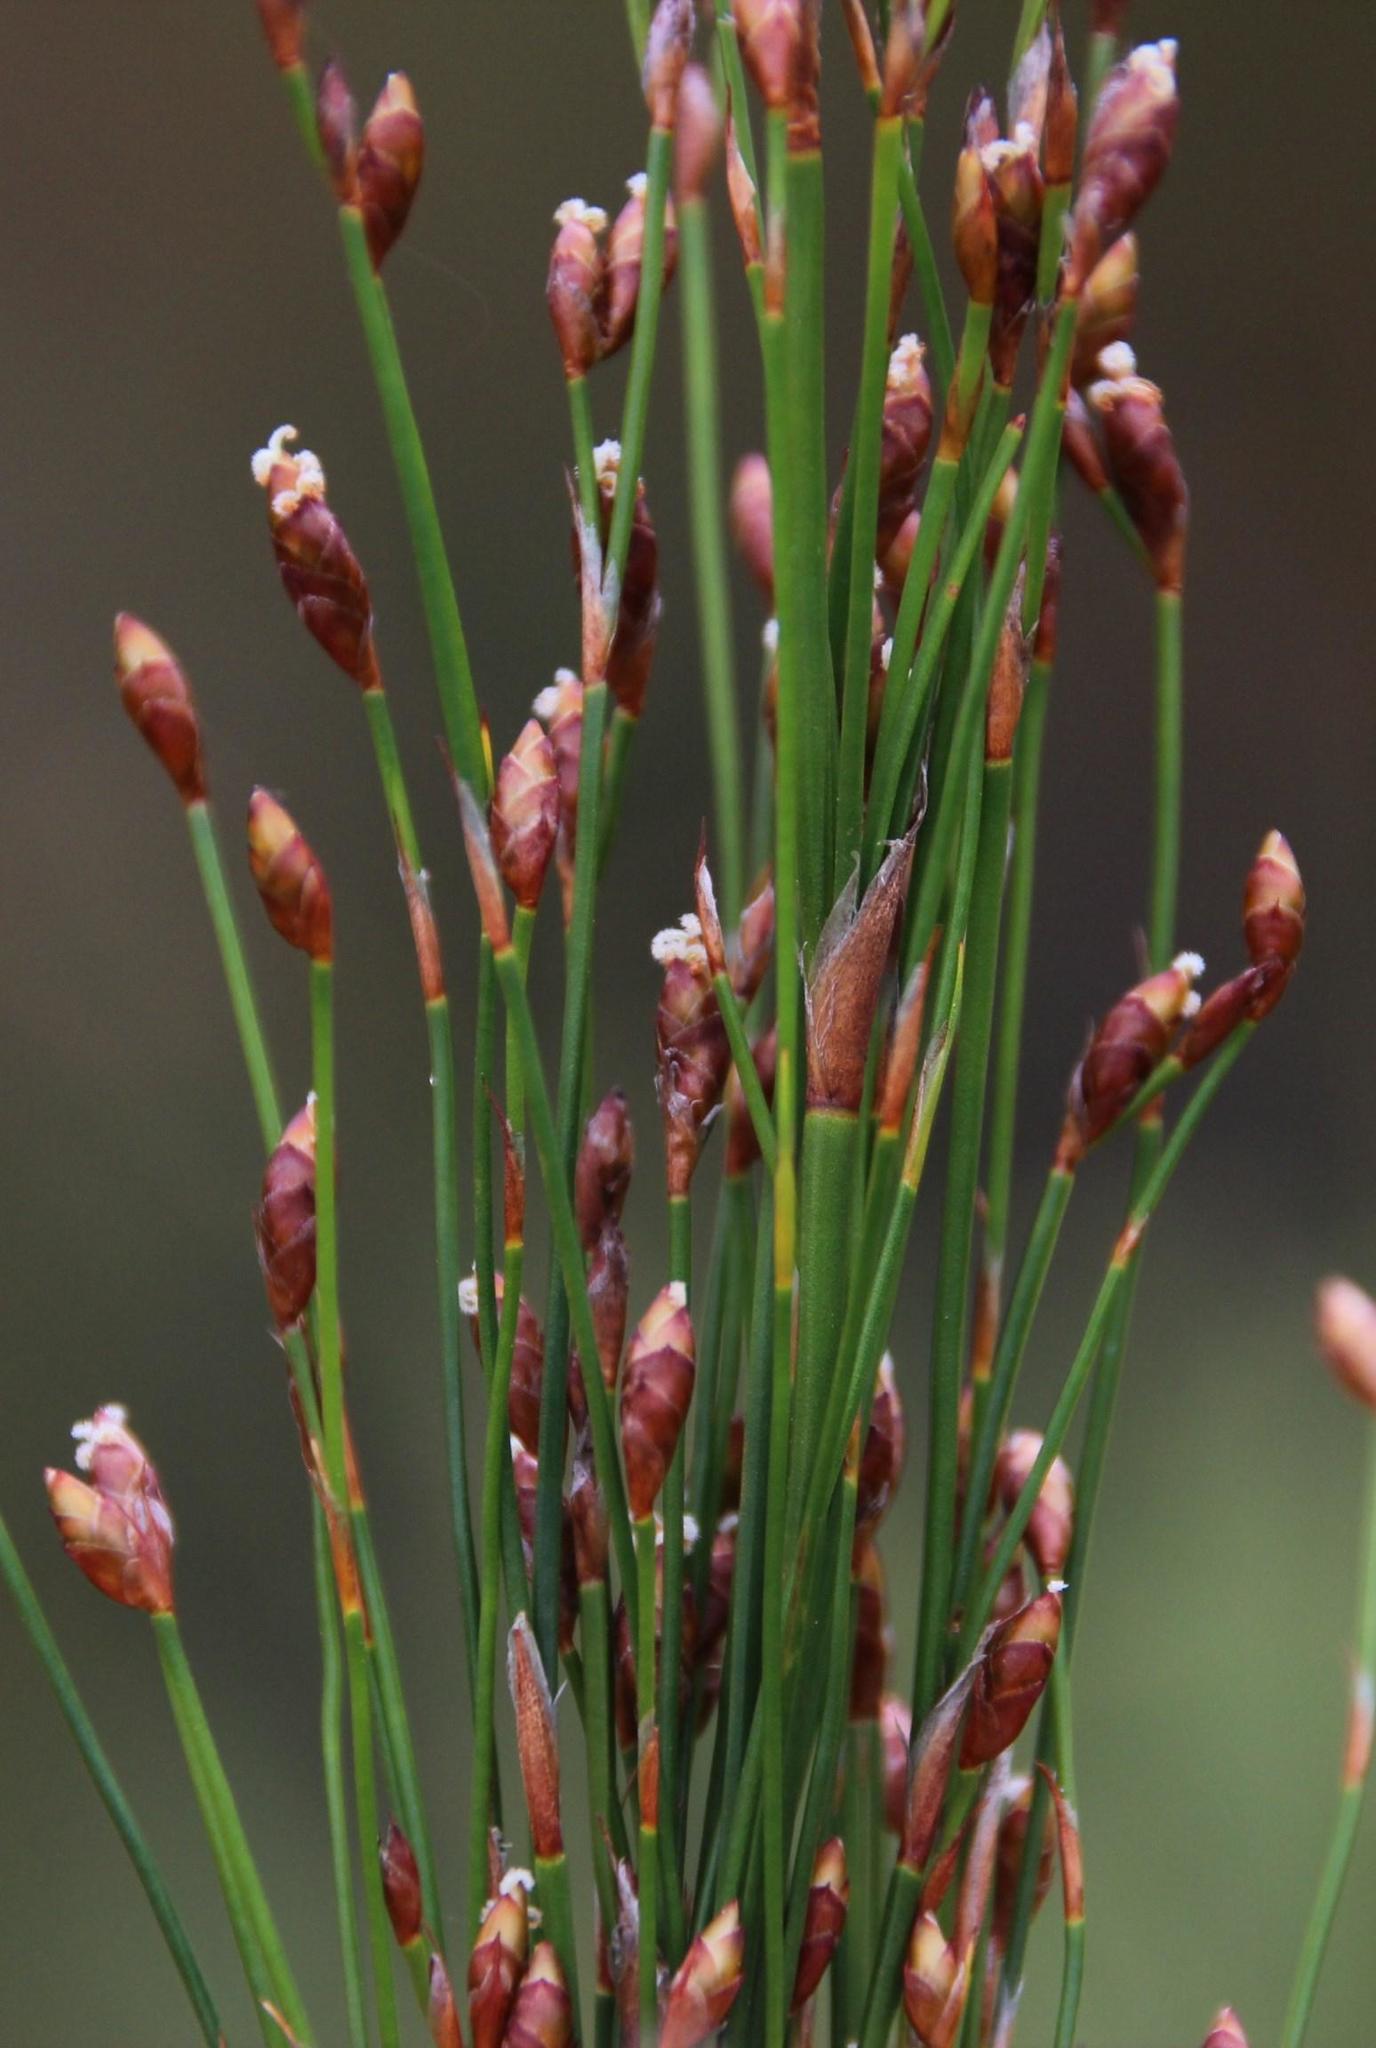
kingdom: Plantae
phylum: Tracheophyta
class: Liliopsida
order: Poales
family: Restionaceae
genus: Restio
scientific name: Restio subverticillatus
